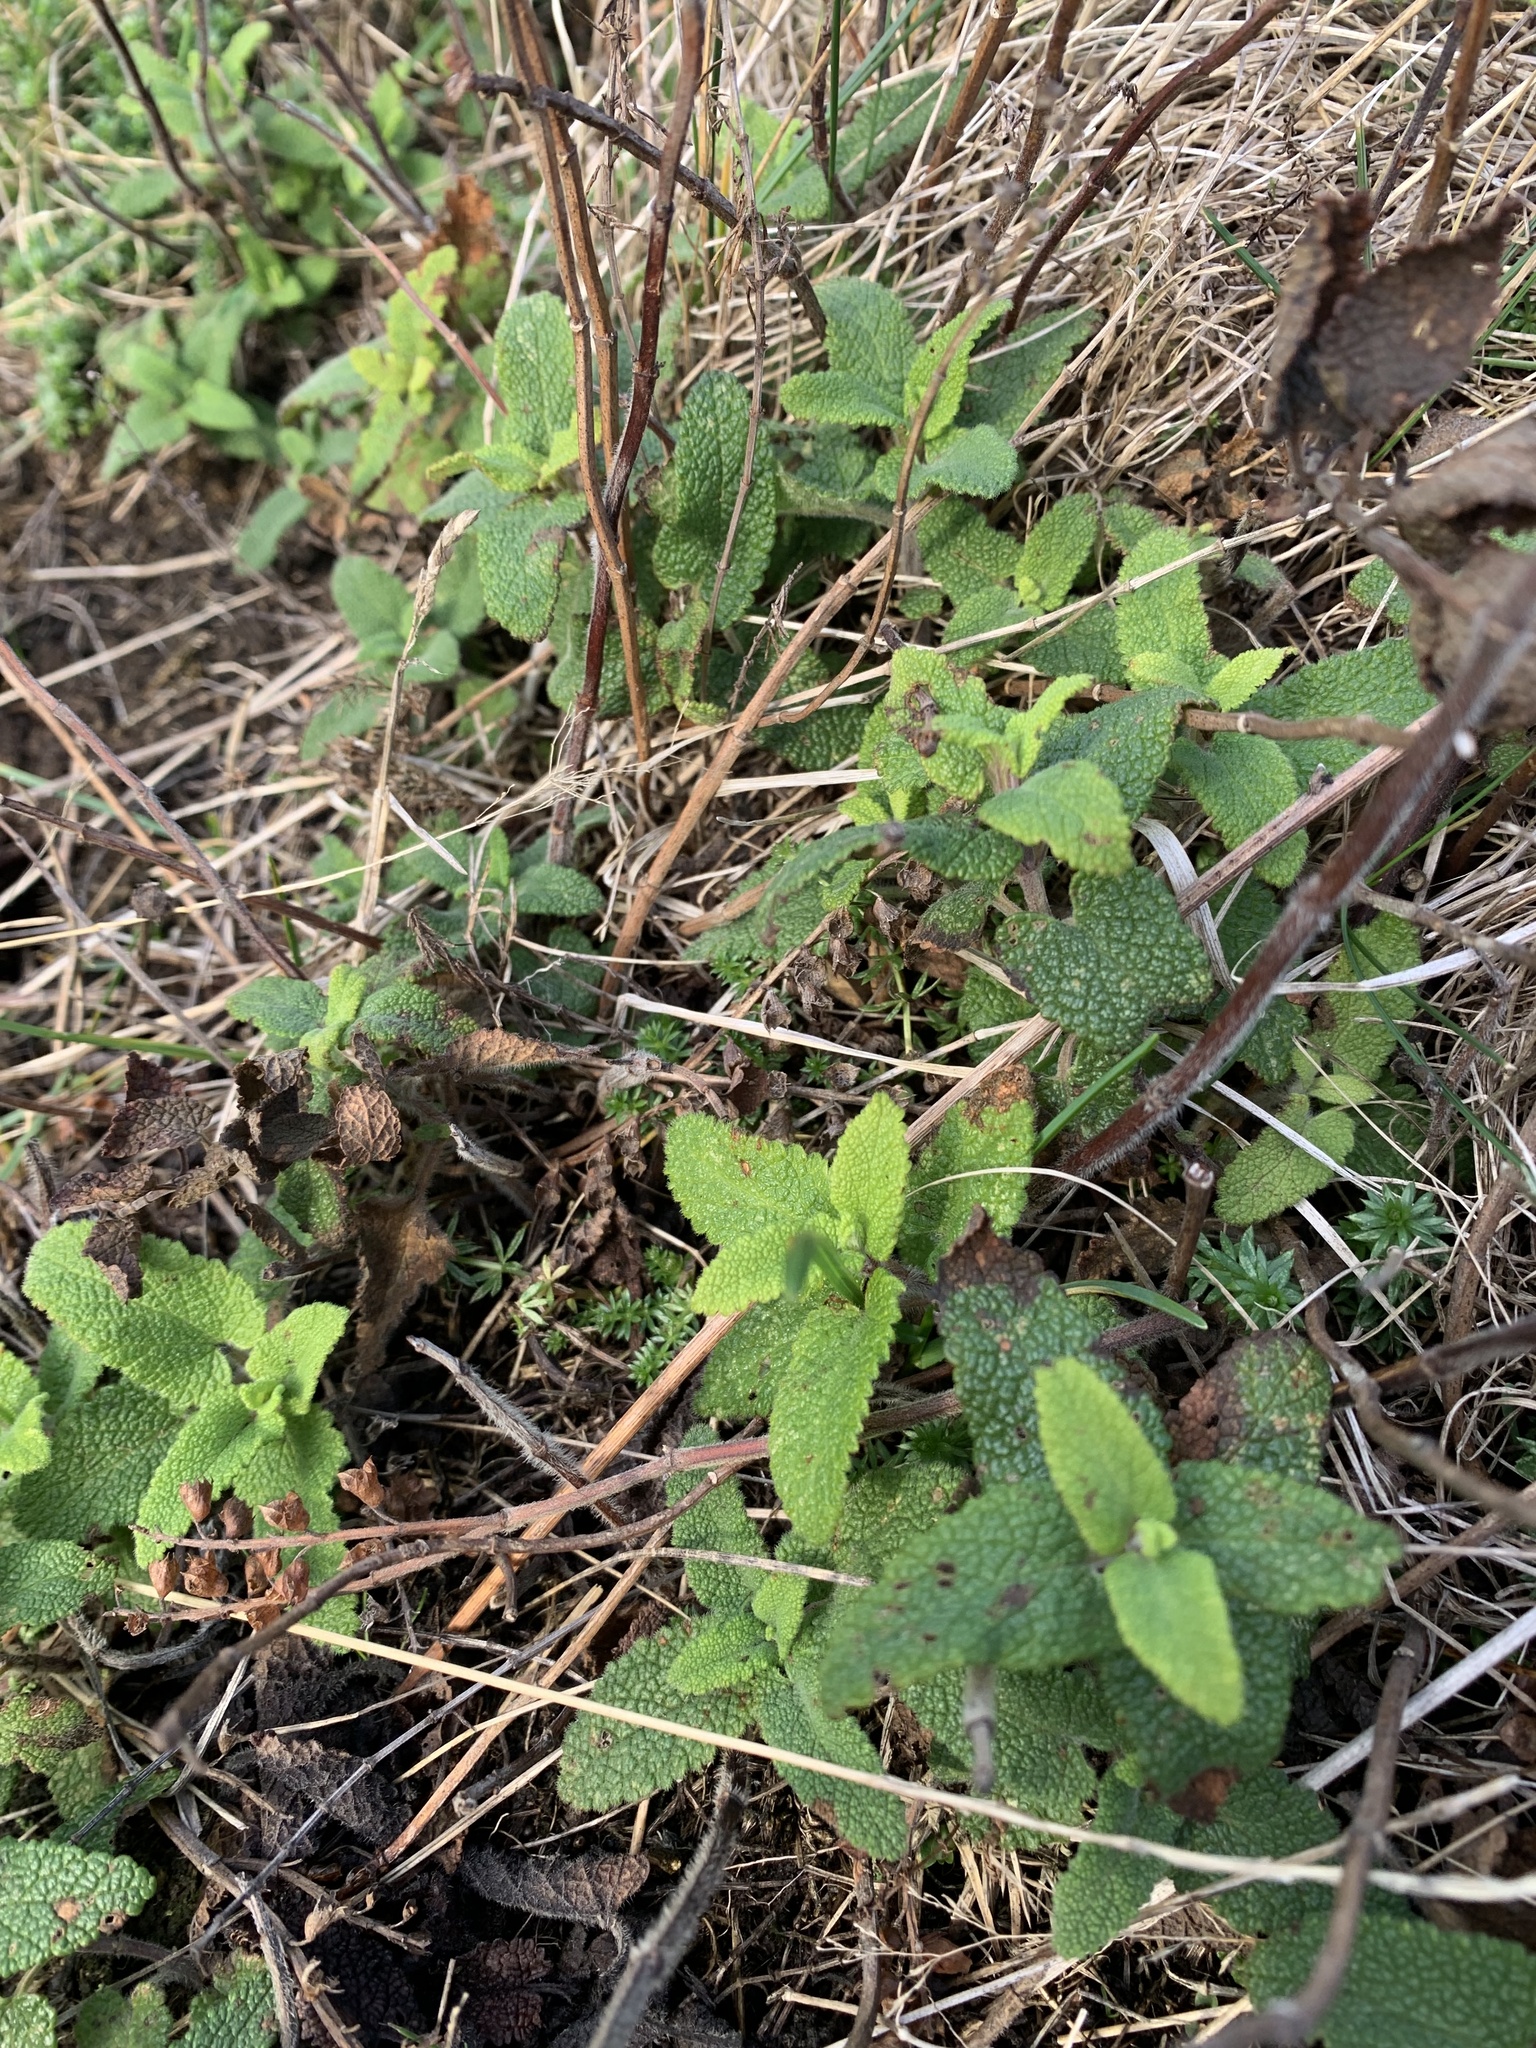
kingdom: Plantae
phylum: Tracheophyta
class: Magnoliopsida
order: Lamiales
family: Lamiaceae
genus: Teucrium
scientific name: Teucrium scorodonia
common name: Woodland germander
